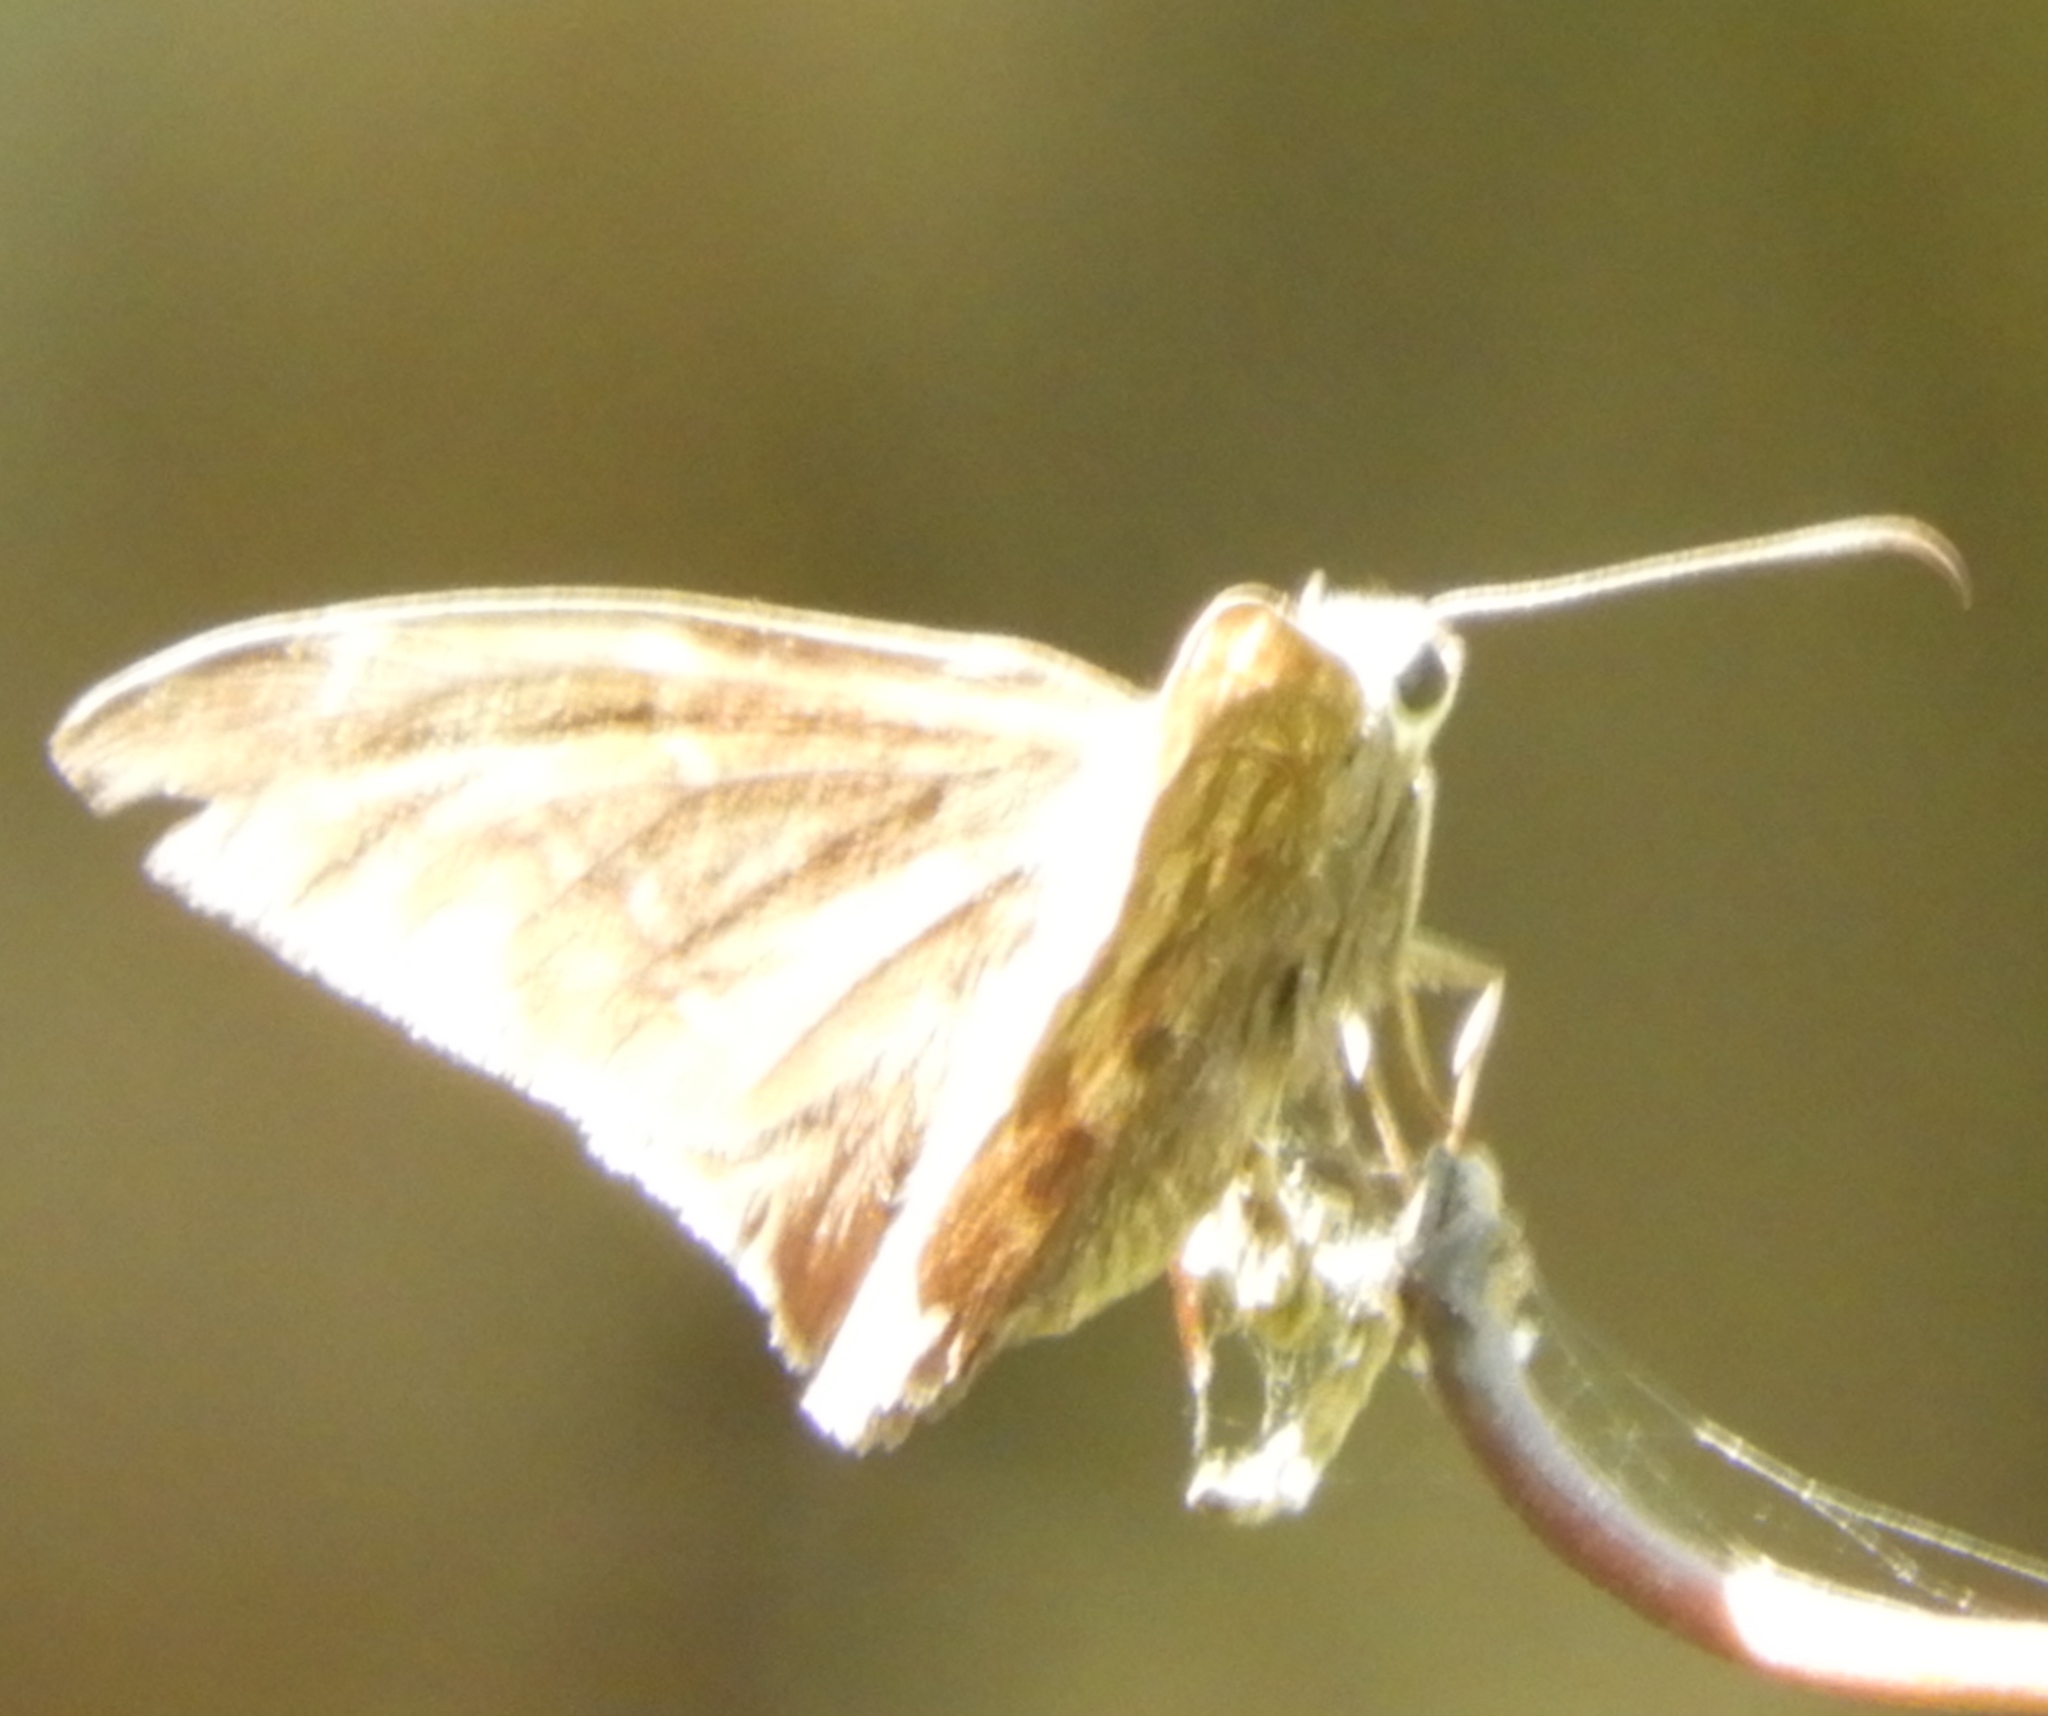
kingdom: Animalia
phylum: Arthropoda
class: Insecta
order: Lepidoptera
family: Hesperiidae
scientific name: Hesperiidae
